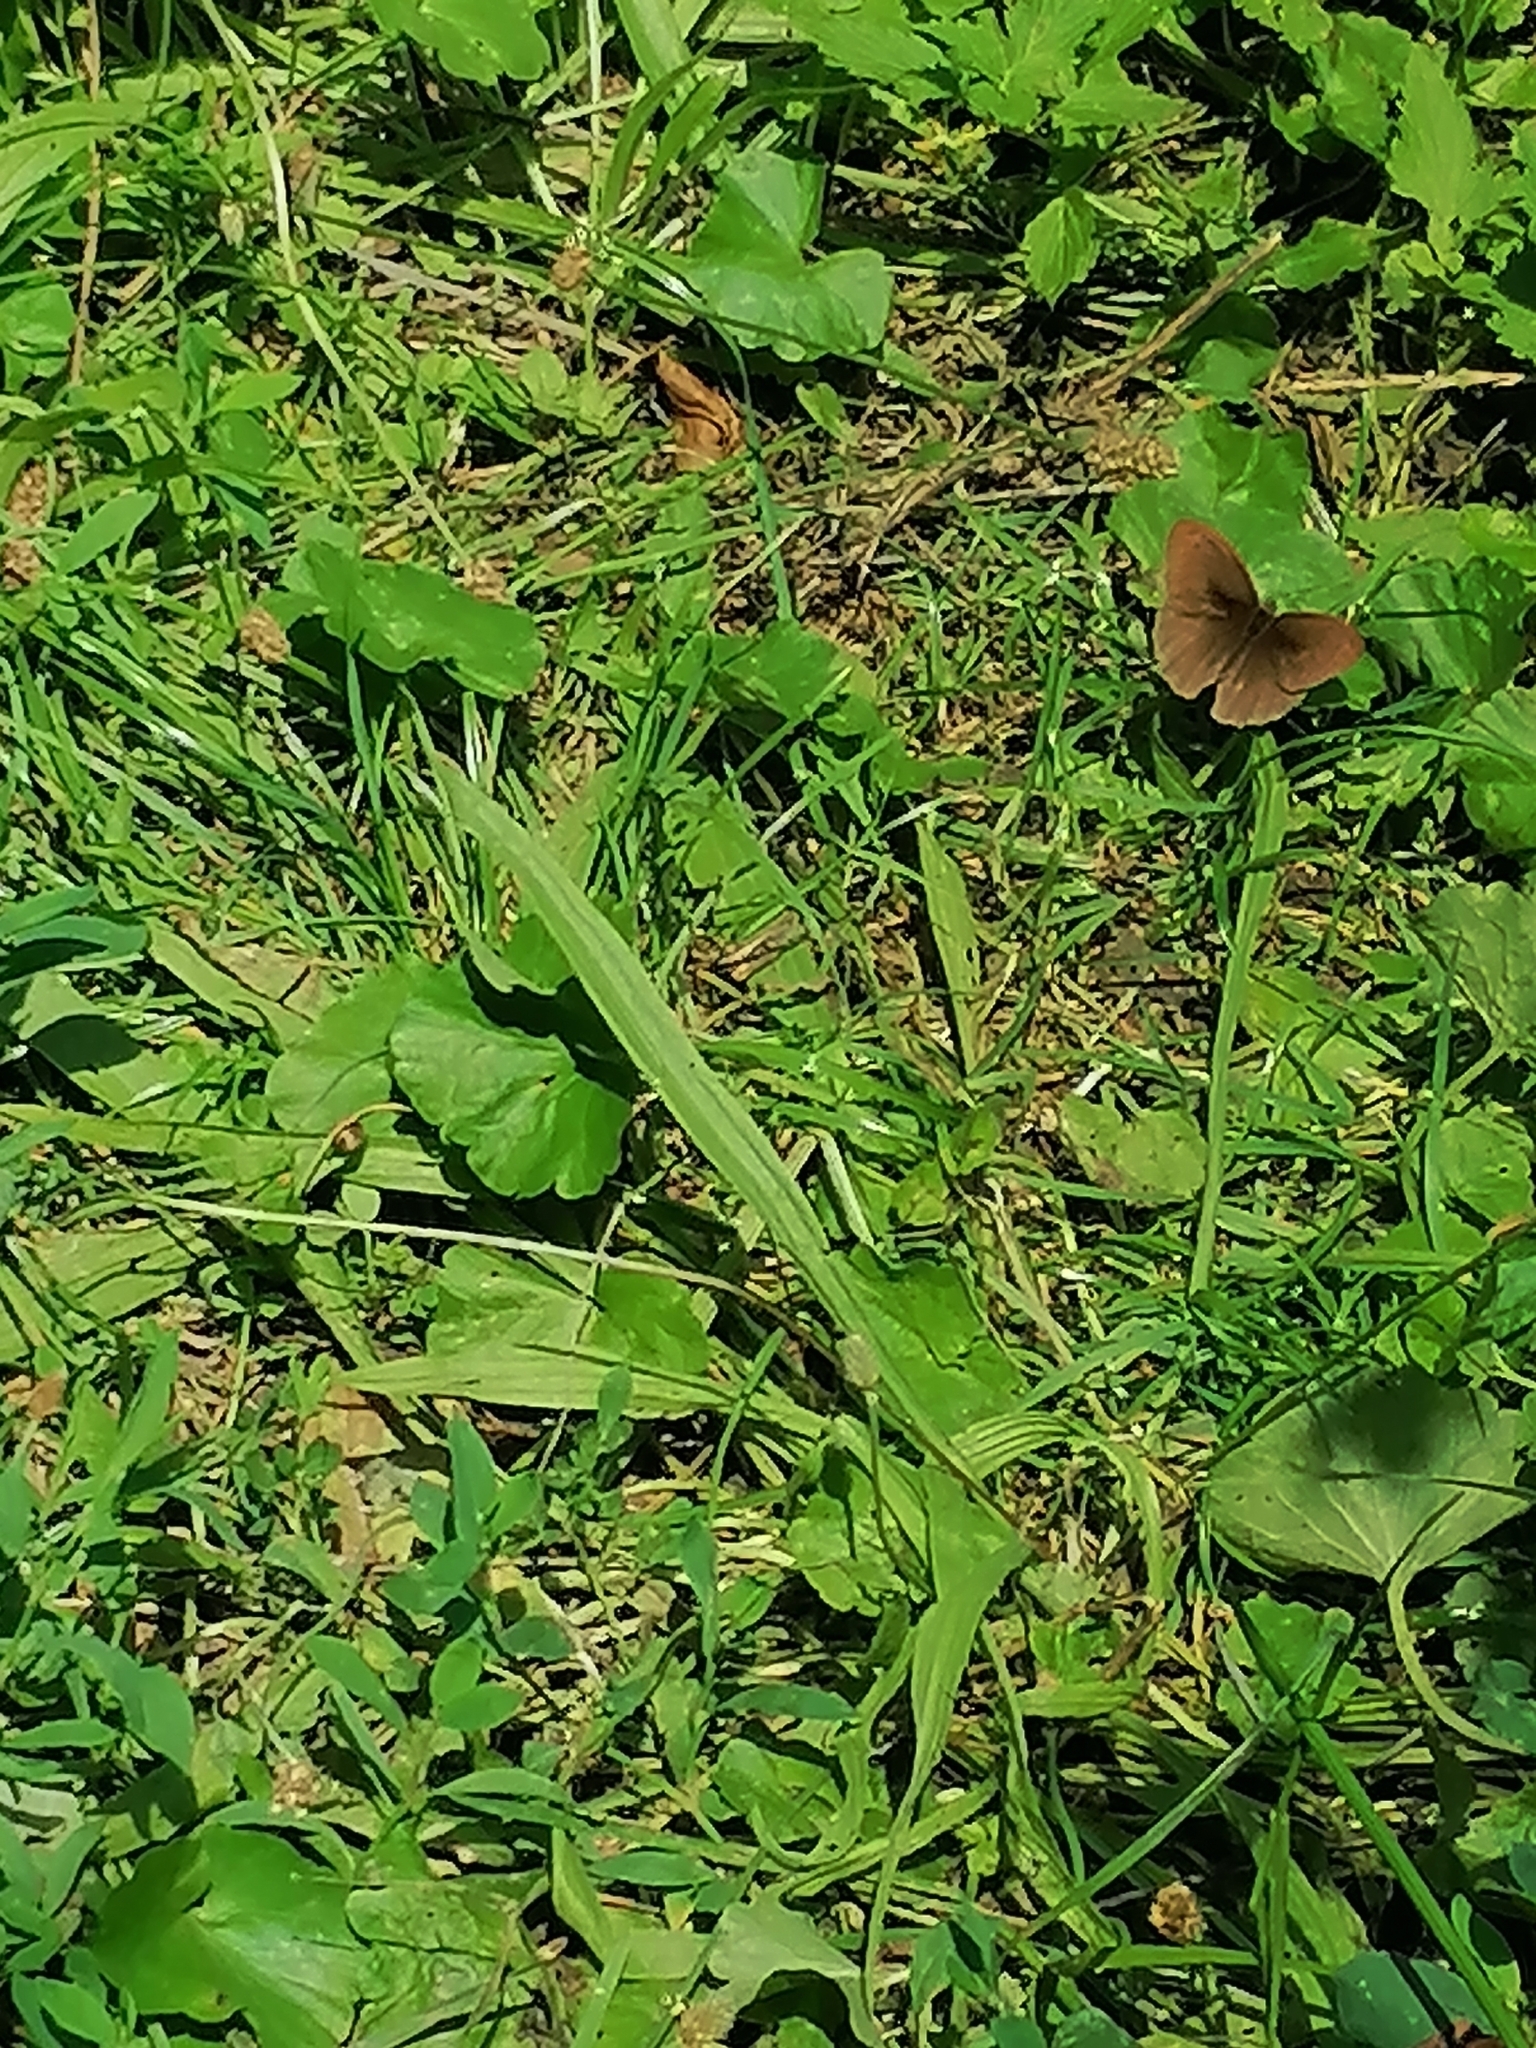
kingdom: Animalia
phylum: Arthropoda
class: Insecta
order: Lepidoptera
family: Nymphalidae
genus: Maniola
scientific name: Maniola jurtina
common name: Meadow brown
